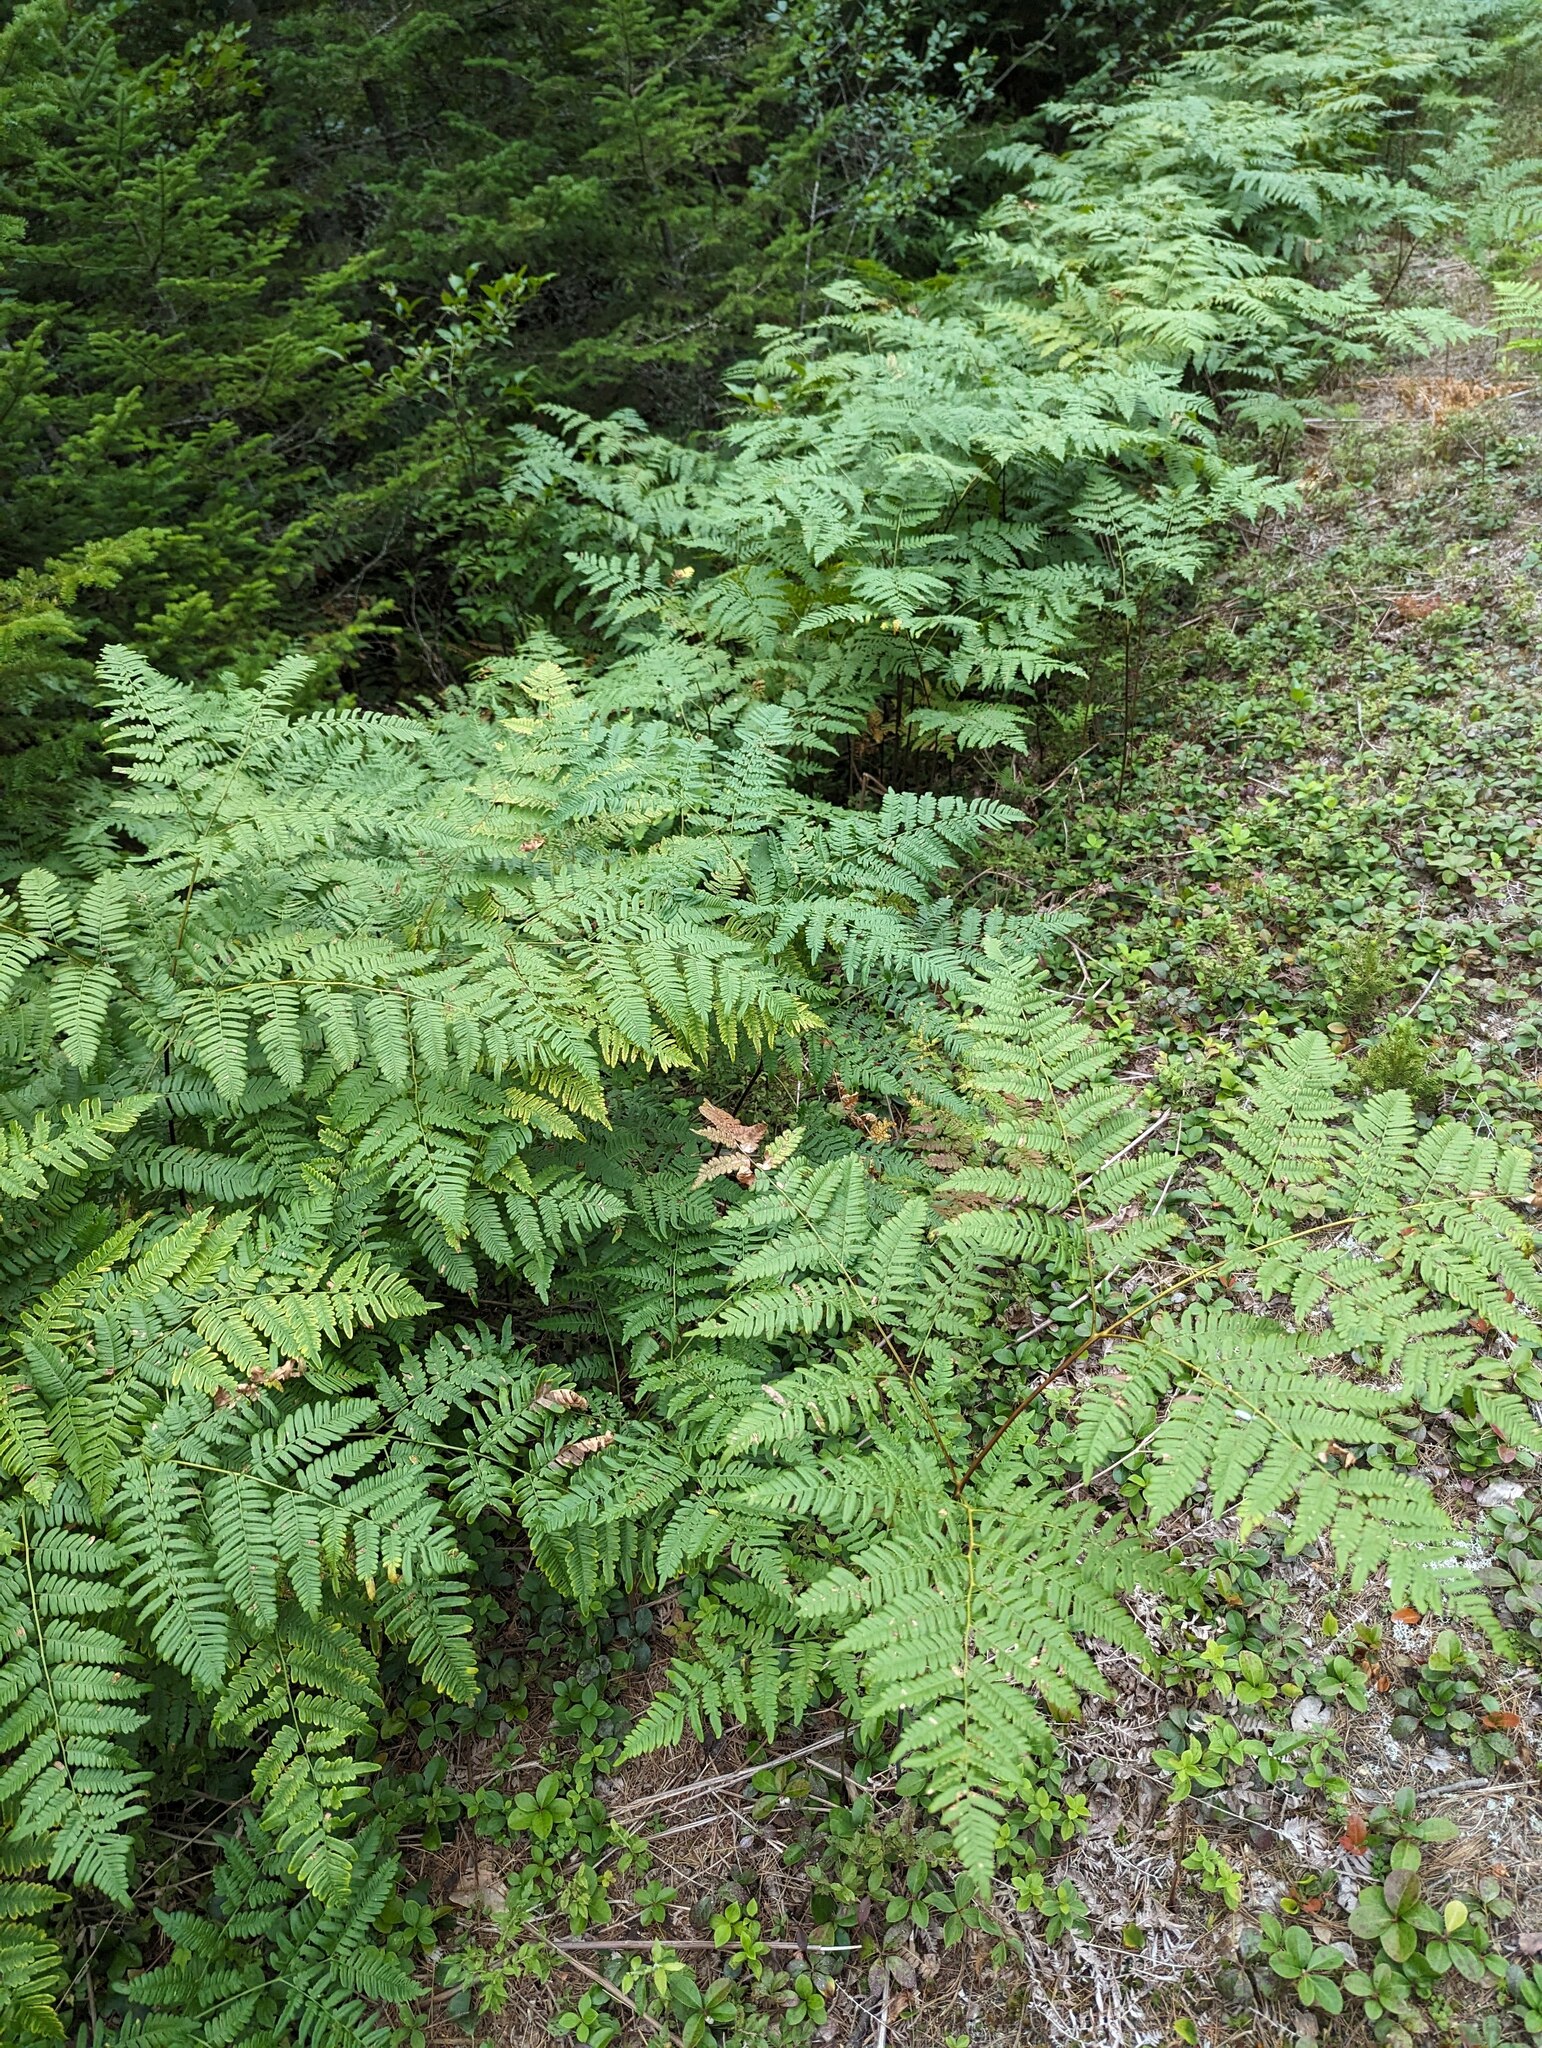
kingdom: Plantae
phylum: Tracheophyta
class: Polypodiopsida
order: Polypodiales
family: Dennstaedtiaceae
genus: Pteridium
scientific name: Pteridium aquilinum
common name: Bracken
